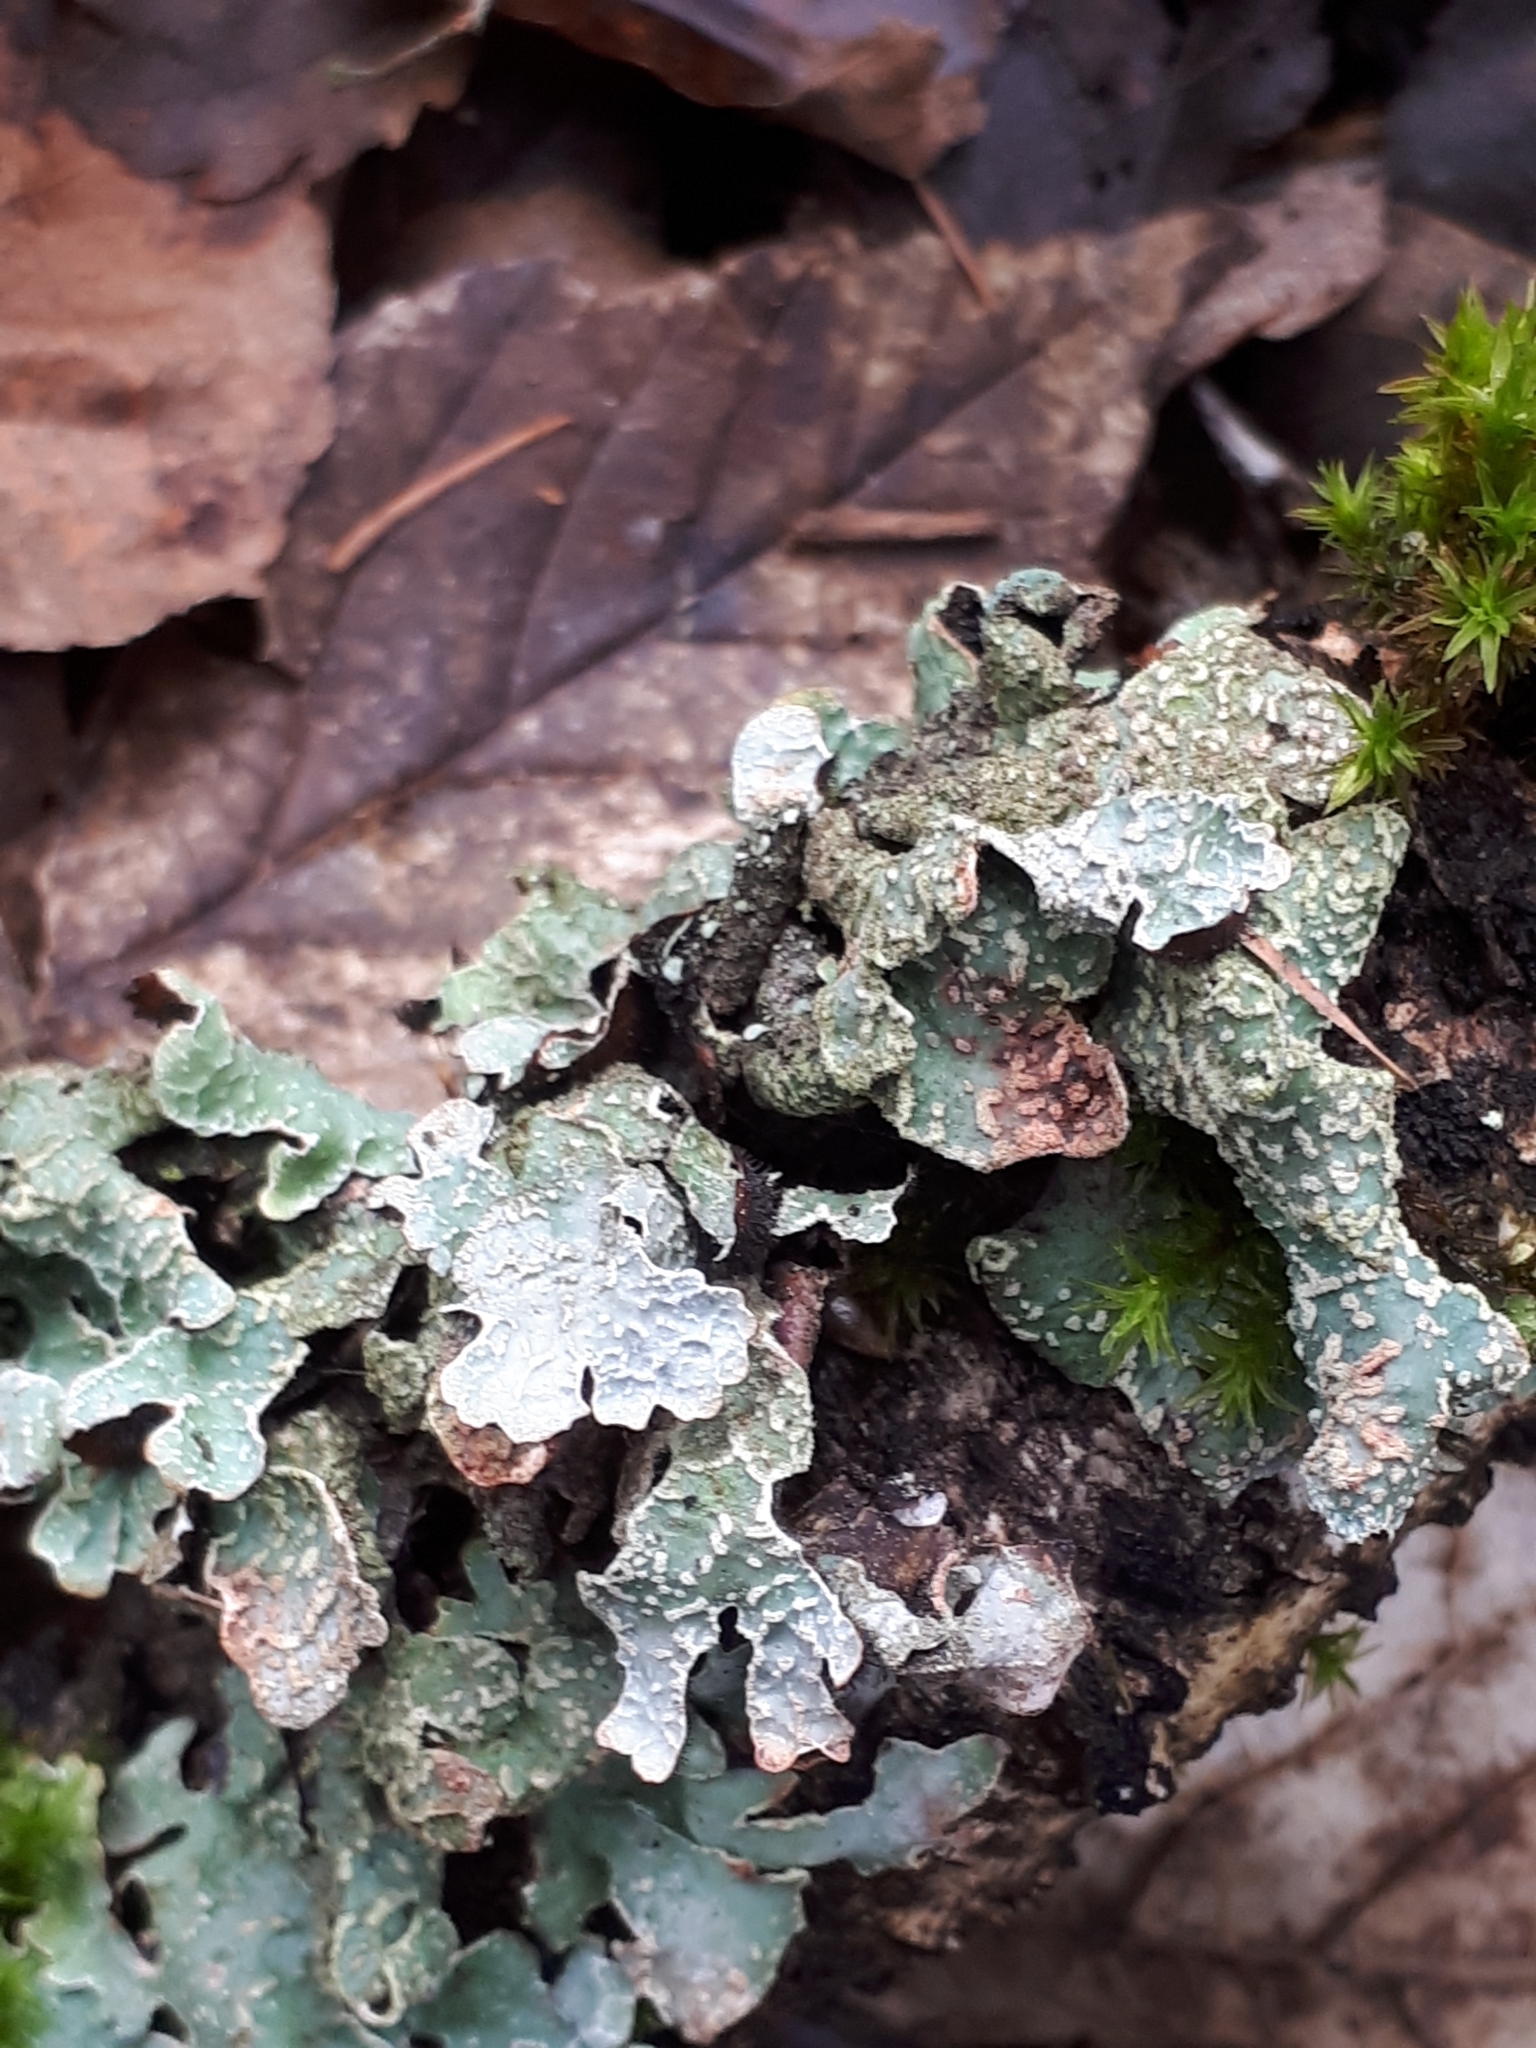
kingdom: Fungi
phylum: Ascomycota
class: Lecanoromycetes
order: Lecanorales
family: Parmeliaceae
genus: Parmelia
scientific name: Parmelia sulcata
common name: Netted shield lichen
